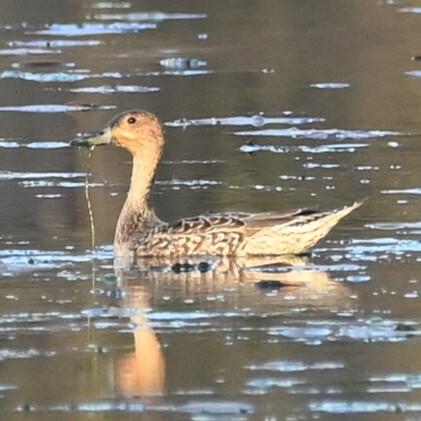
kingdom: Animalia
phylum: Chordata
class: Aves
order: Anseriformes
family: Anatidae
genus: Anas
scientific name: Anas acuta
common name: Northern pintail
